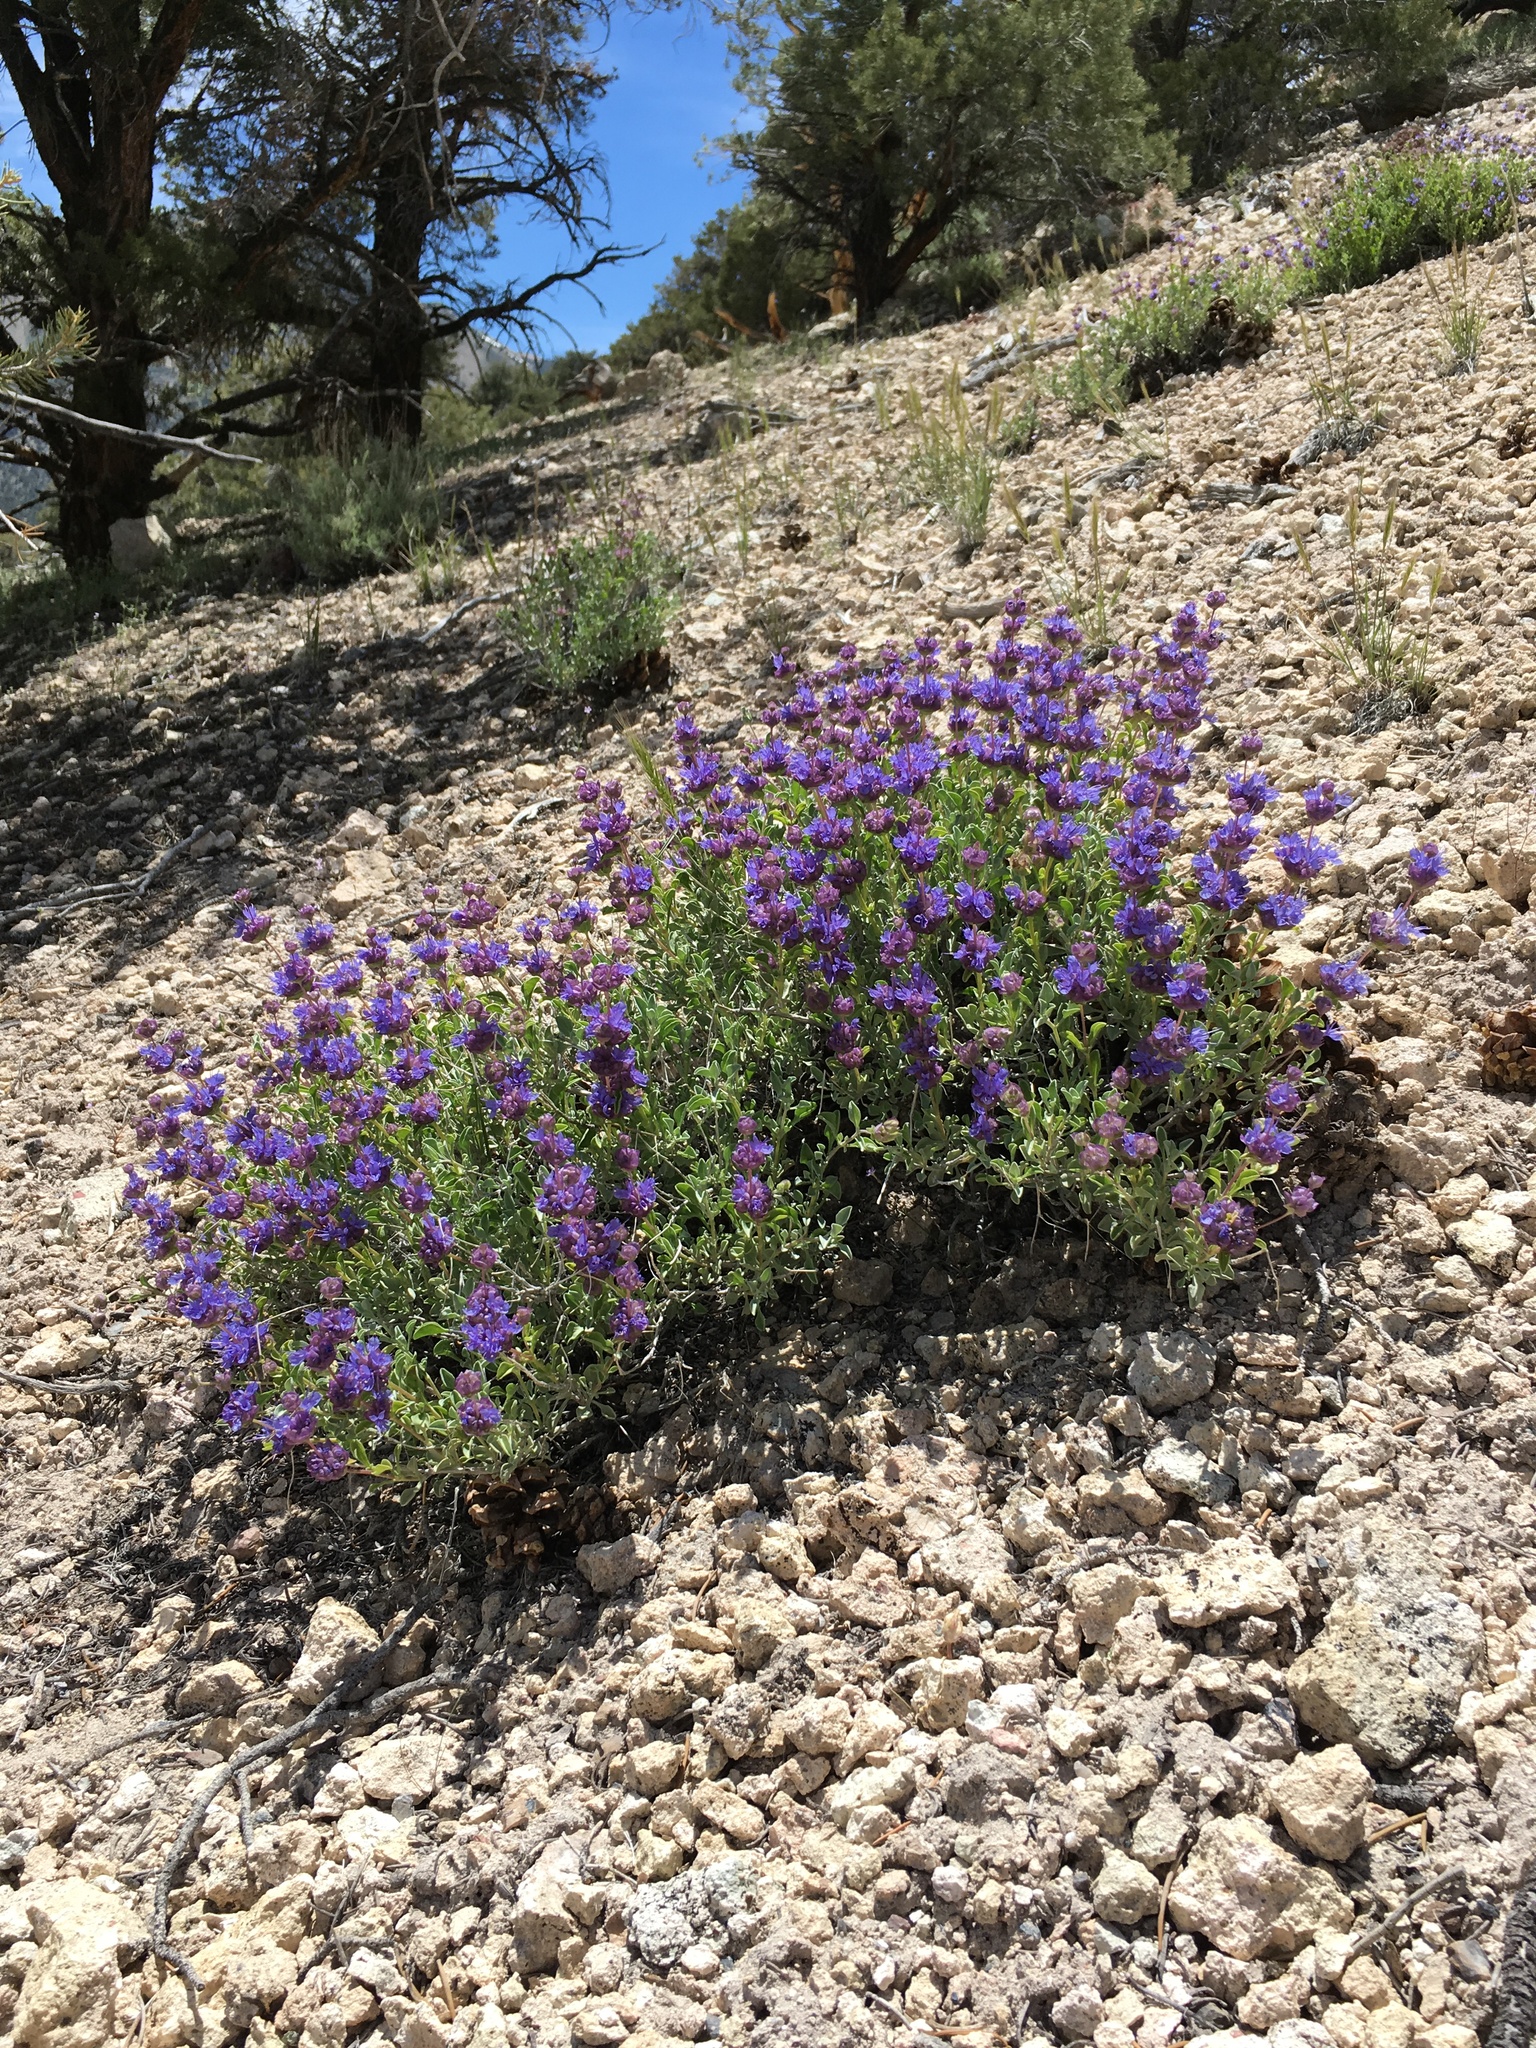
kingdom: Plantae
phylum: Tracheophyta
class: Magnoliopsida
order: Lamiales
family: Lamiaceae
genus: Salvia
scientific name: Salvia dorrii
